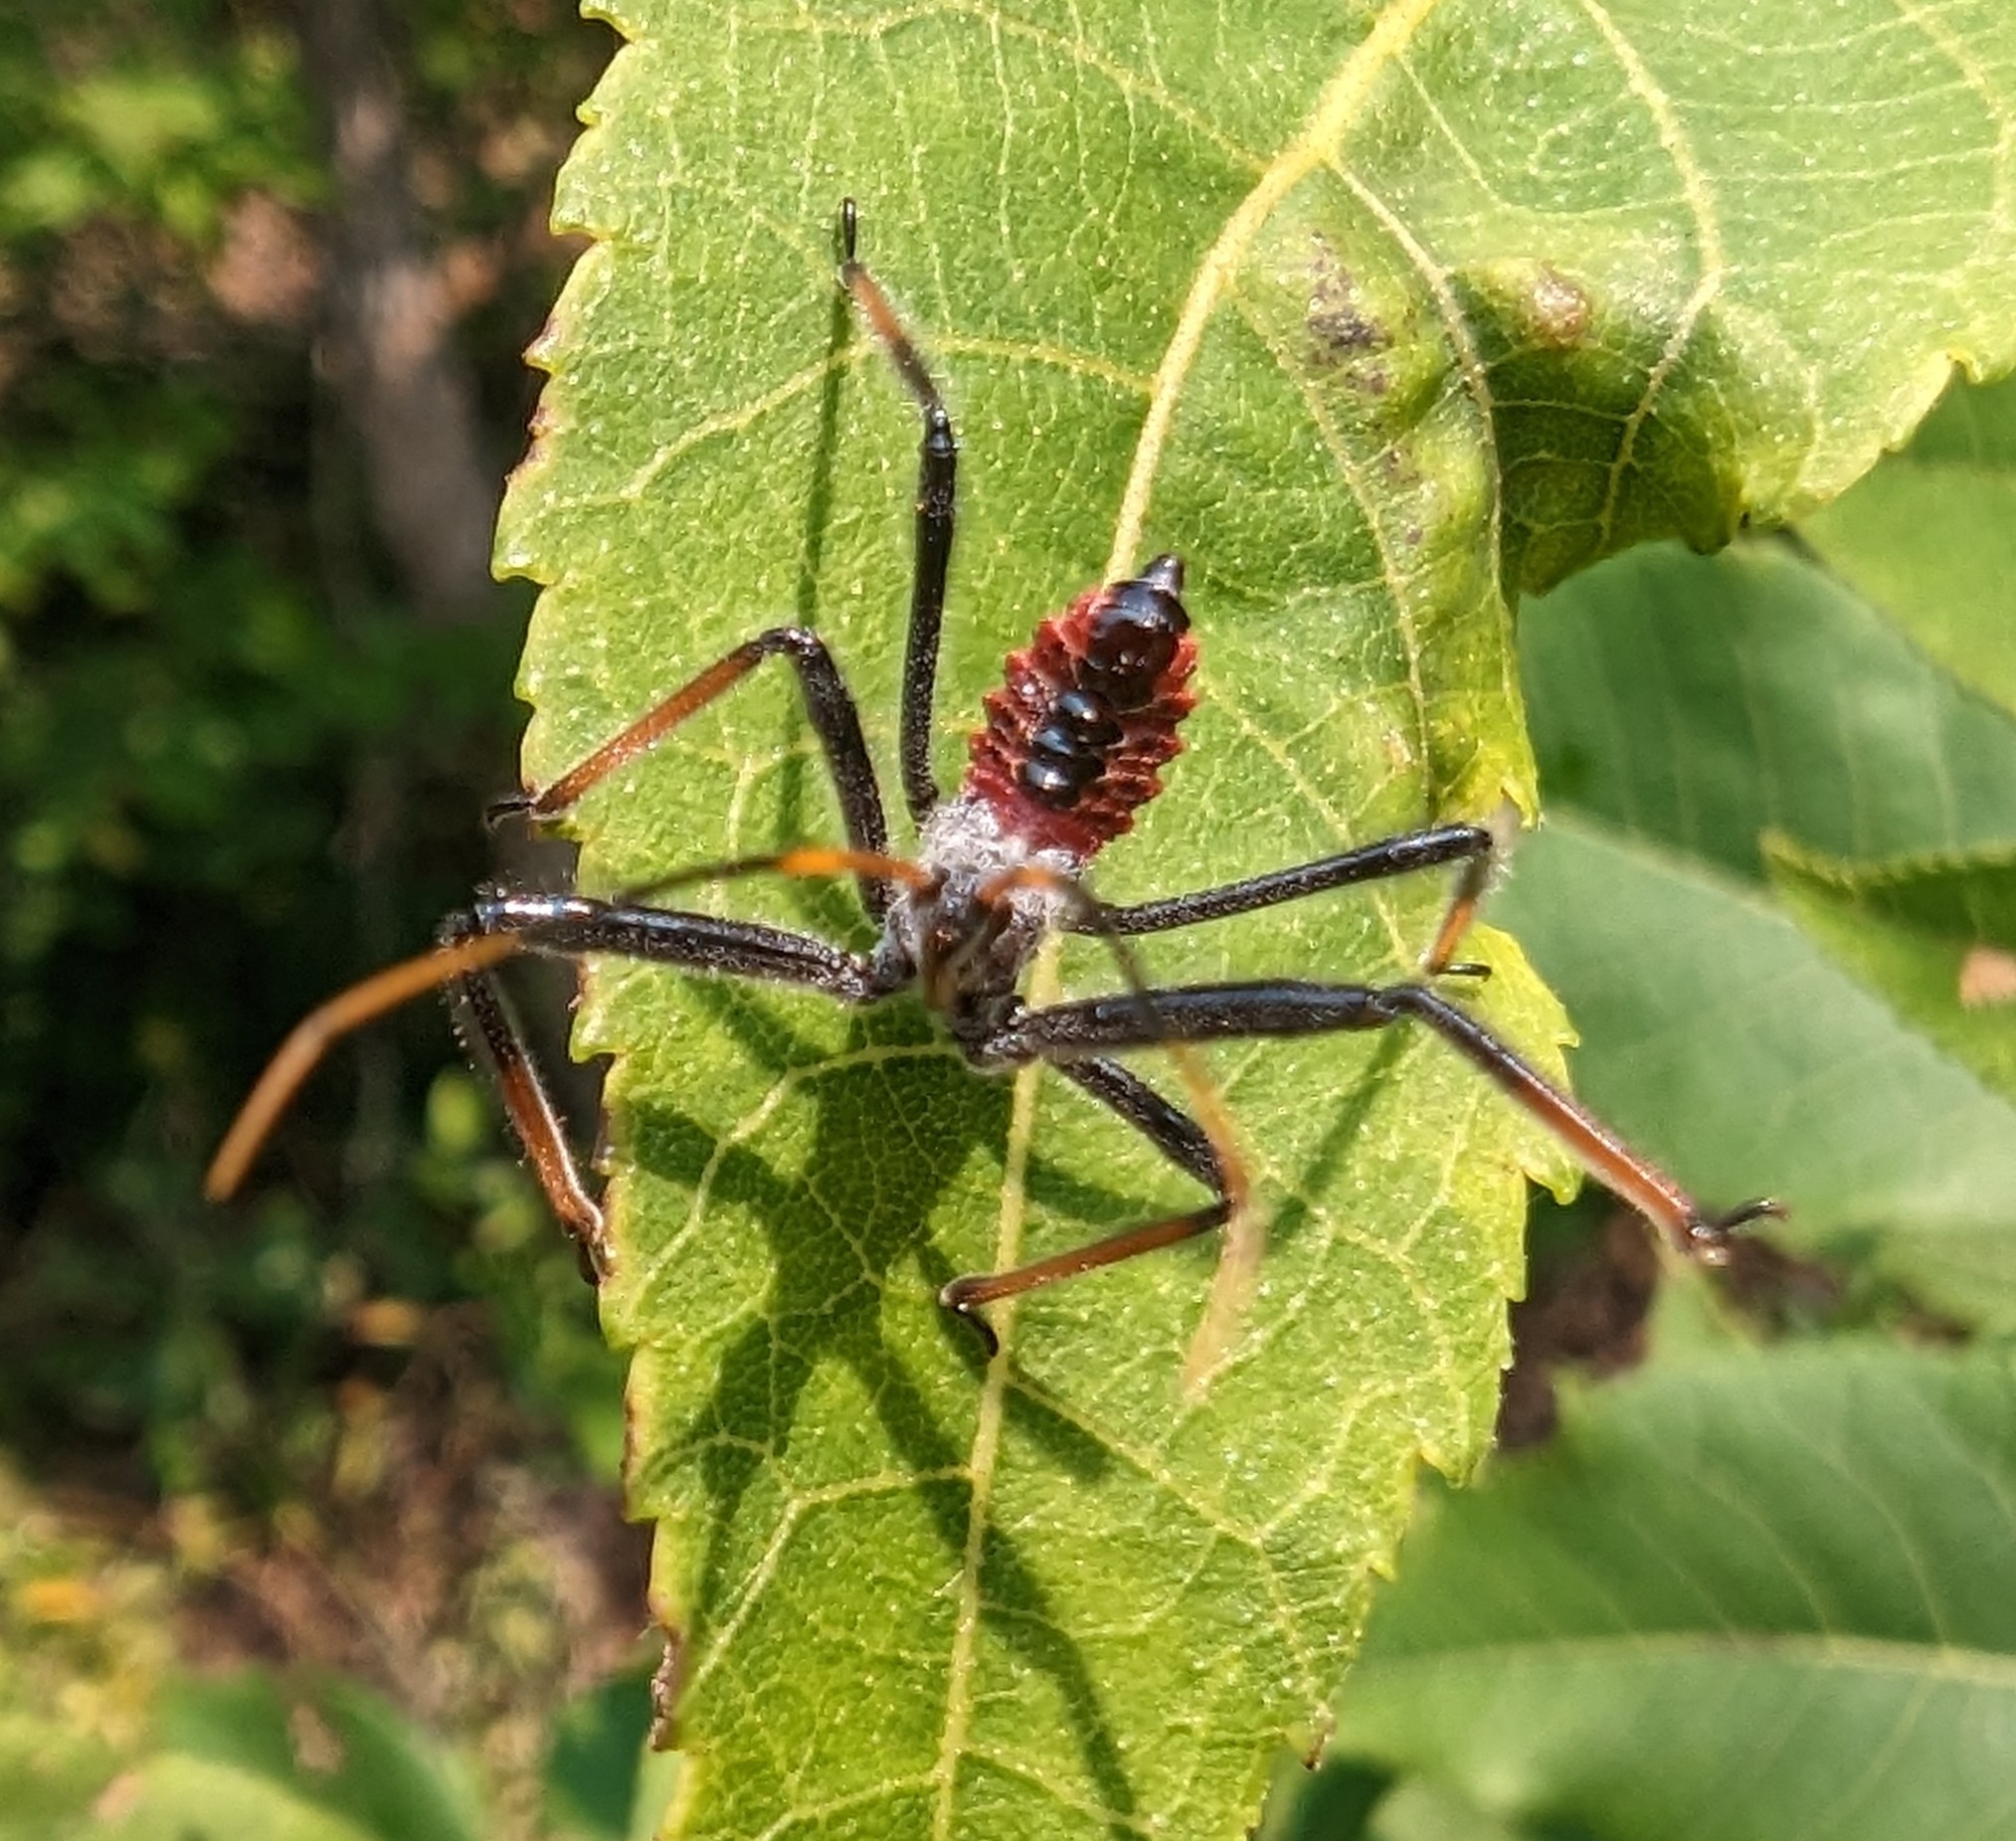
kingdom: Animalia
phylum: Arthropoda
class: Insecta
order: Hemiptera
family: Reduviidae
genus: Arilus
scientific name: Arilus cristatus
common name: North american wheel bug
